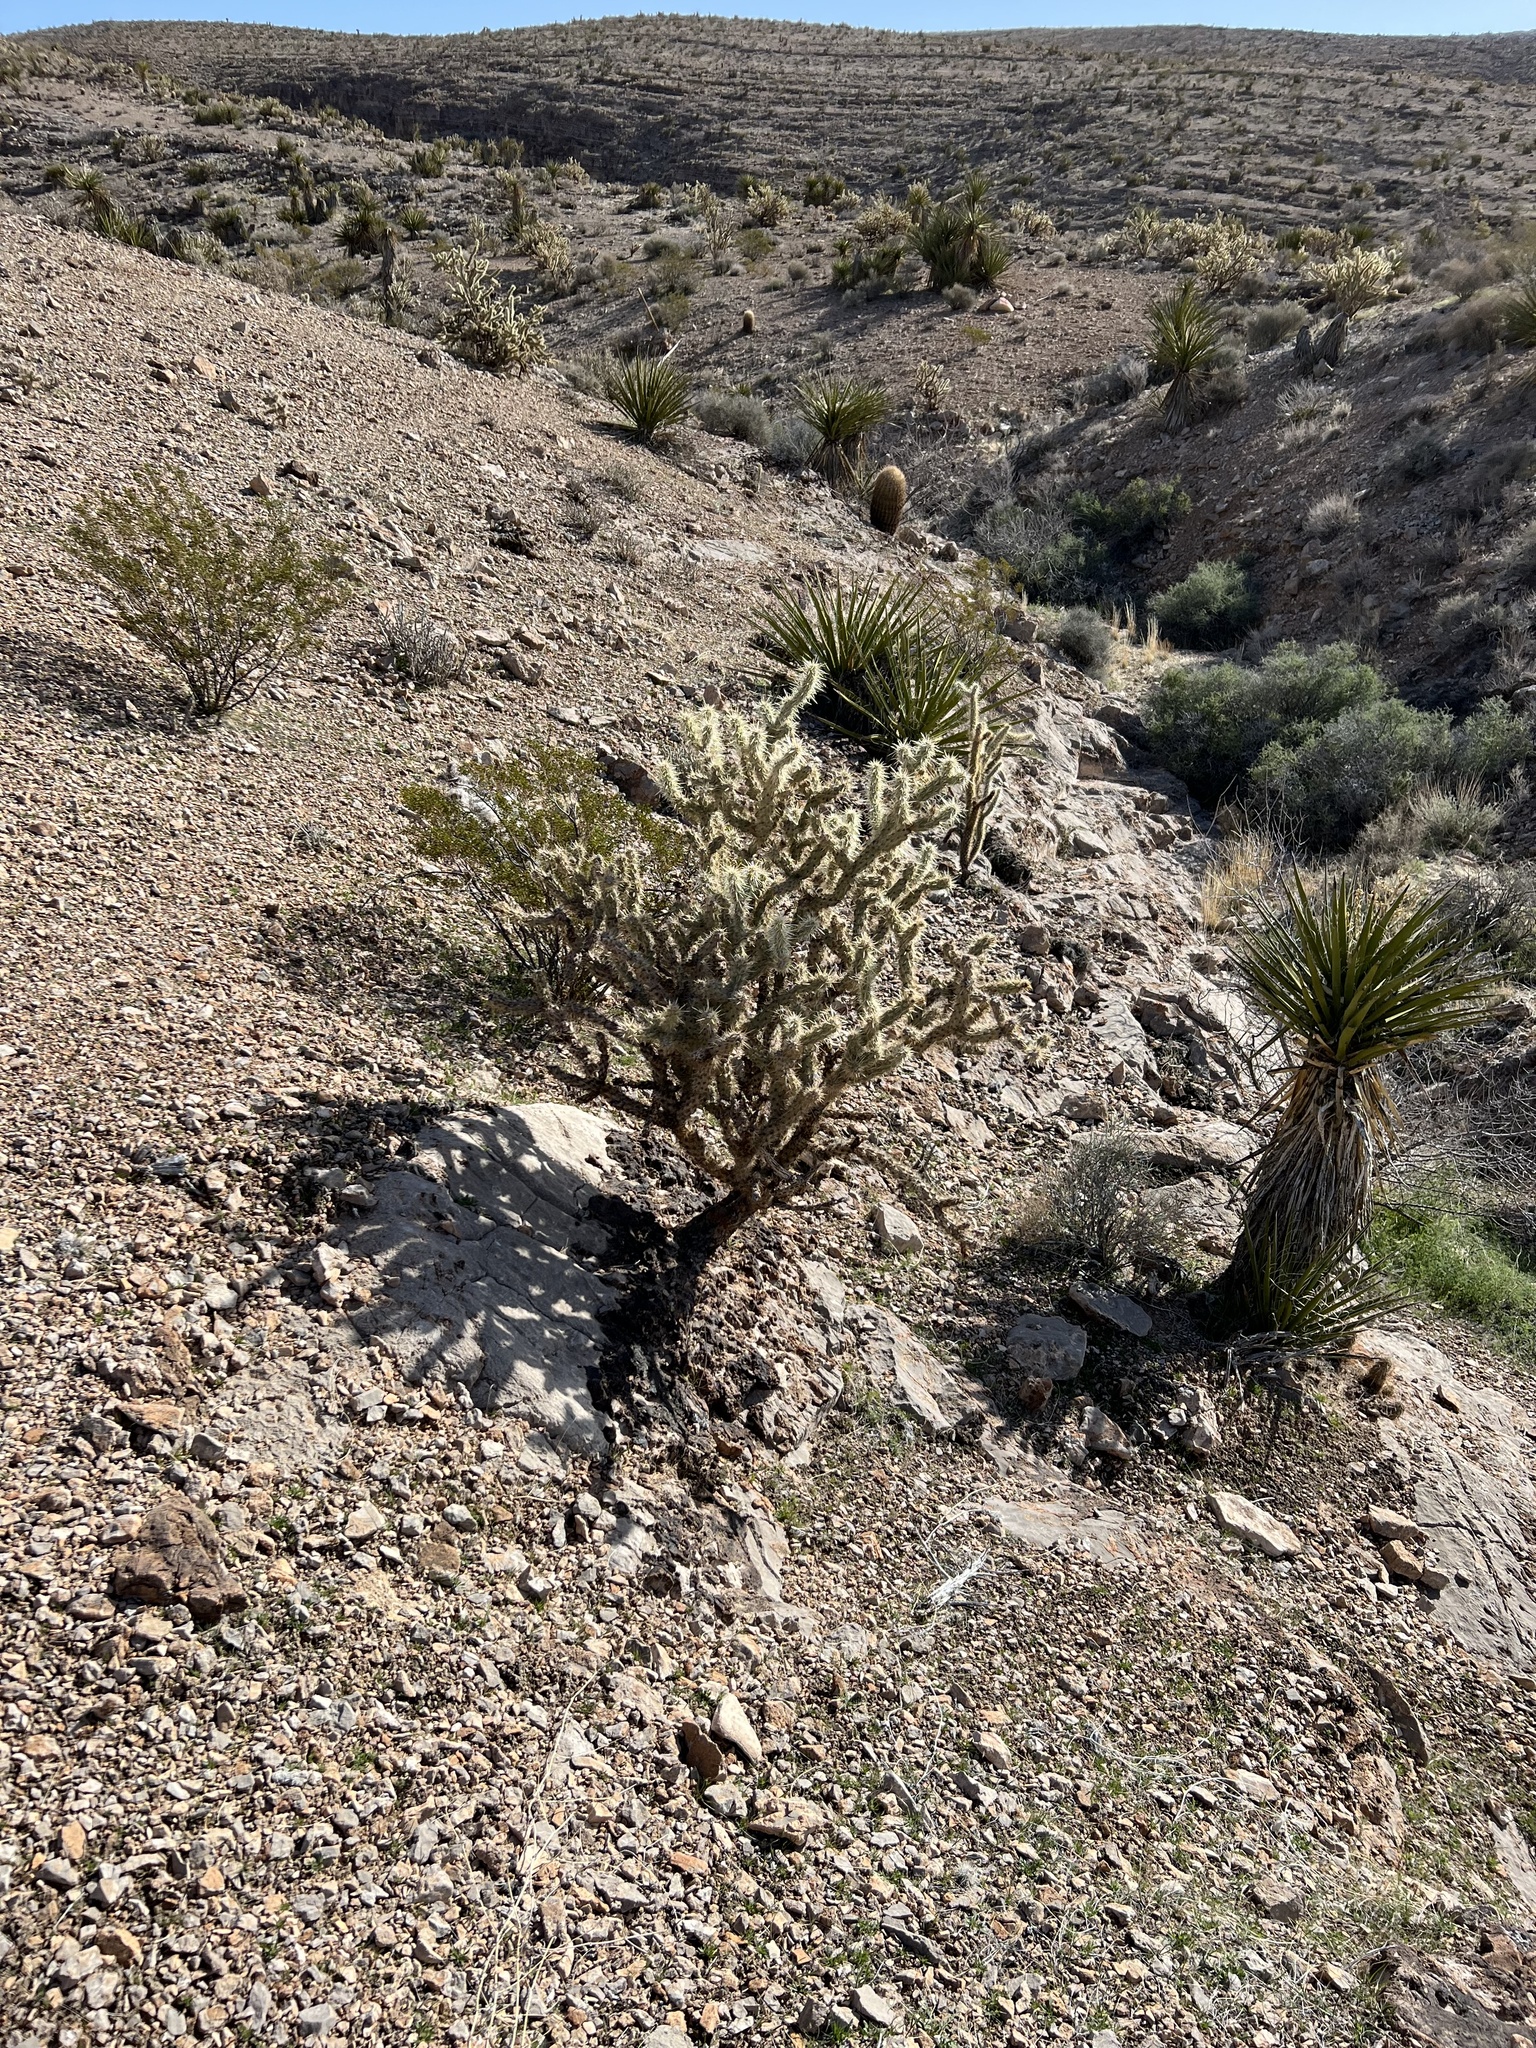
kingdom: Plantae
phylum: Tracheophyta
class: Magnoliopsida
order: Caryophyllales
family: Cactaceae
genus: Cylindropuntia
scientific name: Cylindropuntia acanthocarpa
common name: Buckhorn cholla
